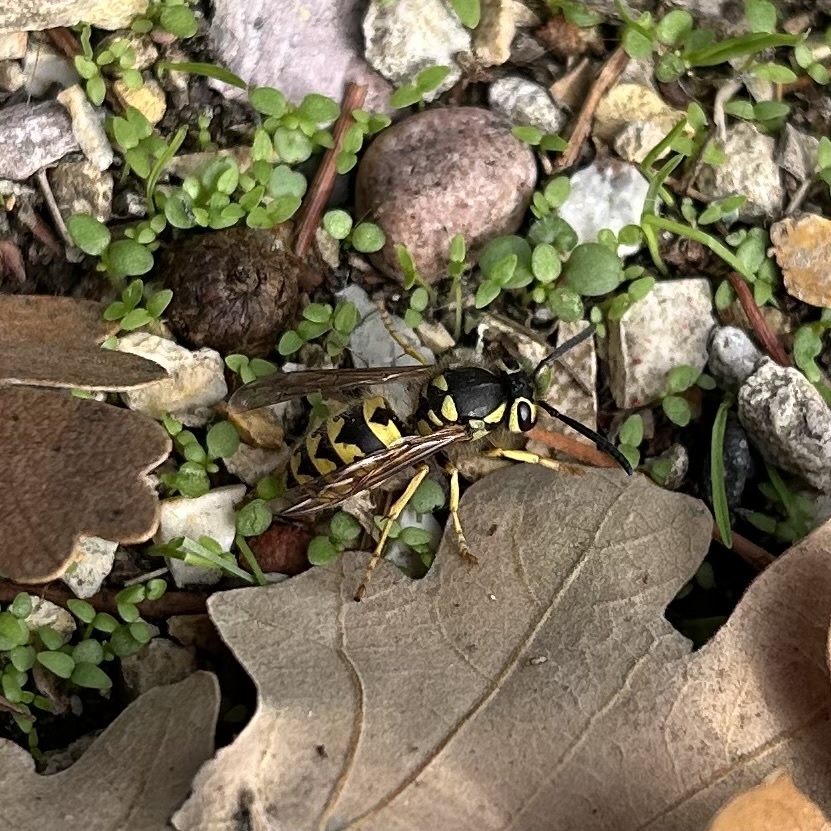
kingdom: Animalia
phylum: Arthropoda
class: Insecta
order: Hymenoptera
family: Vespidae
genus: Vespula
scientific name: Vespula pensylvanica
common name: Western yellowjacket
